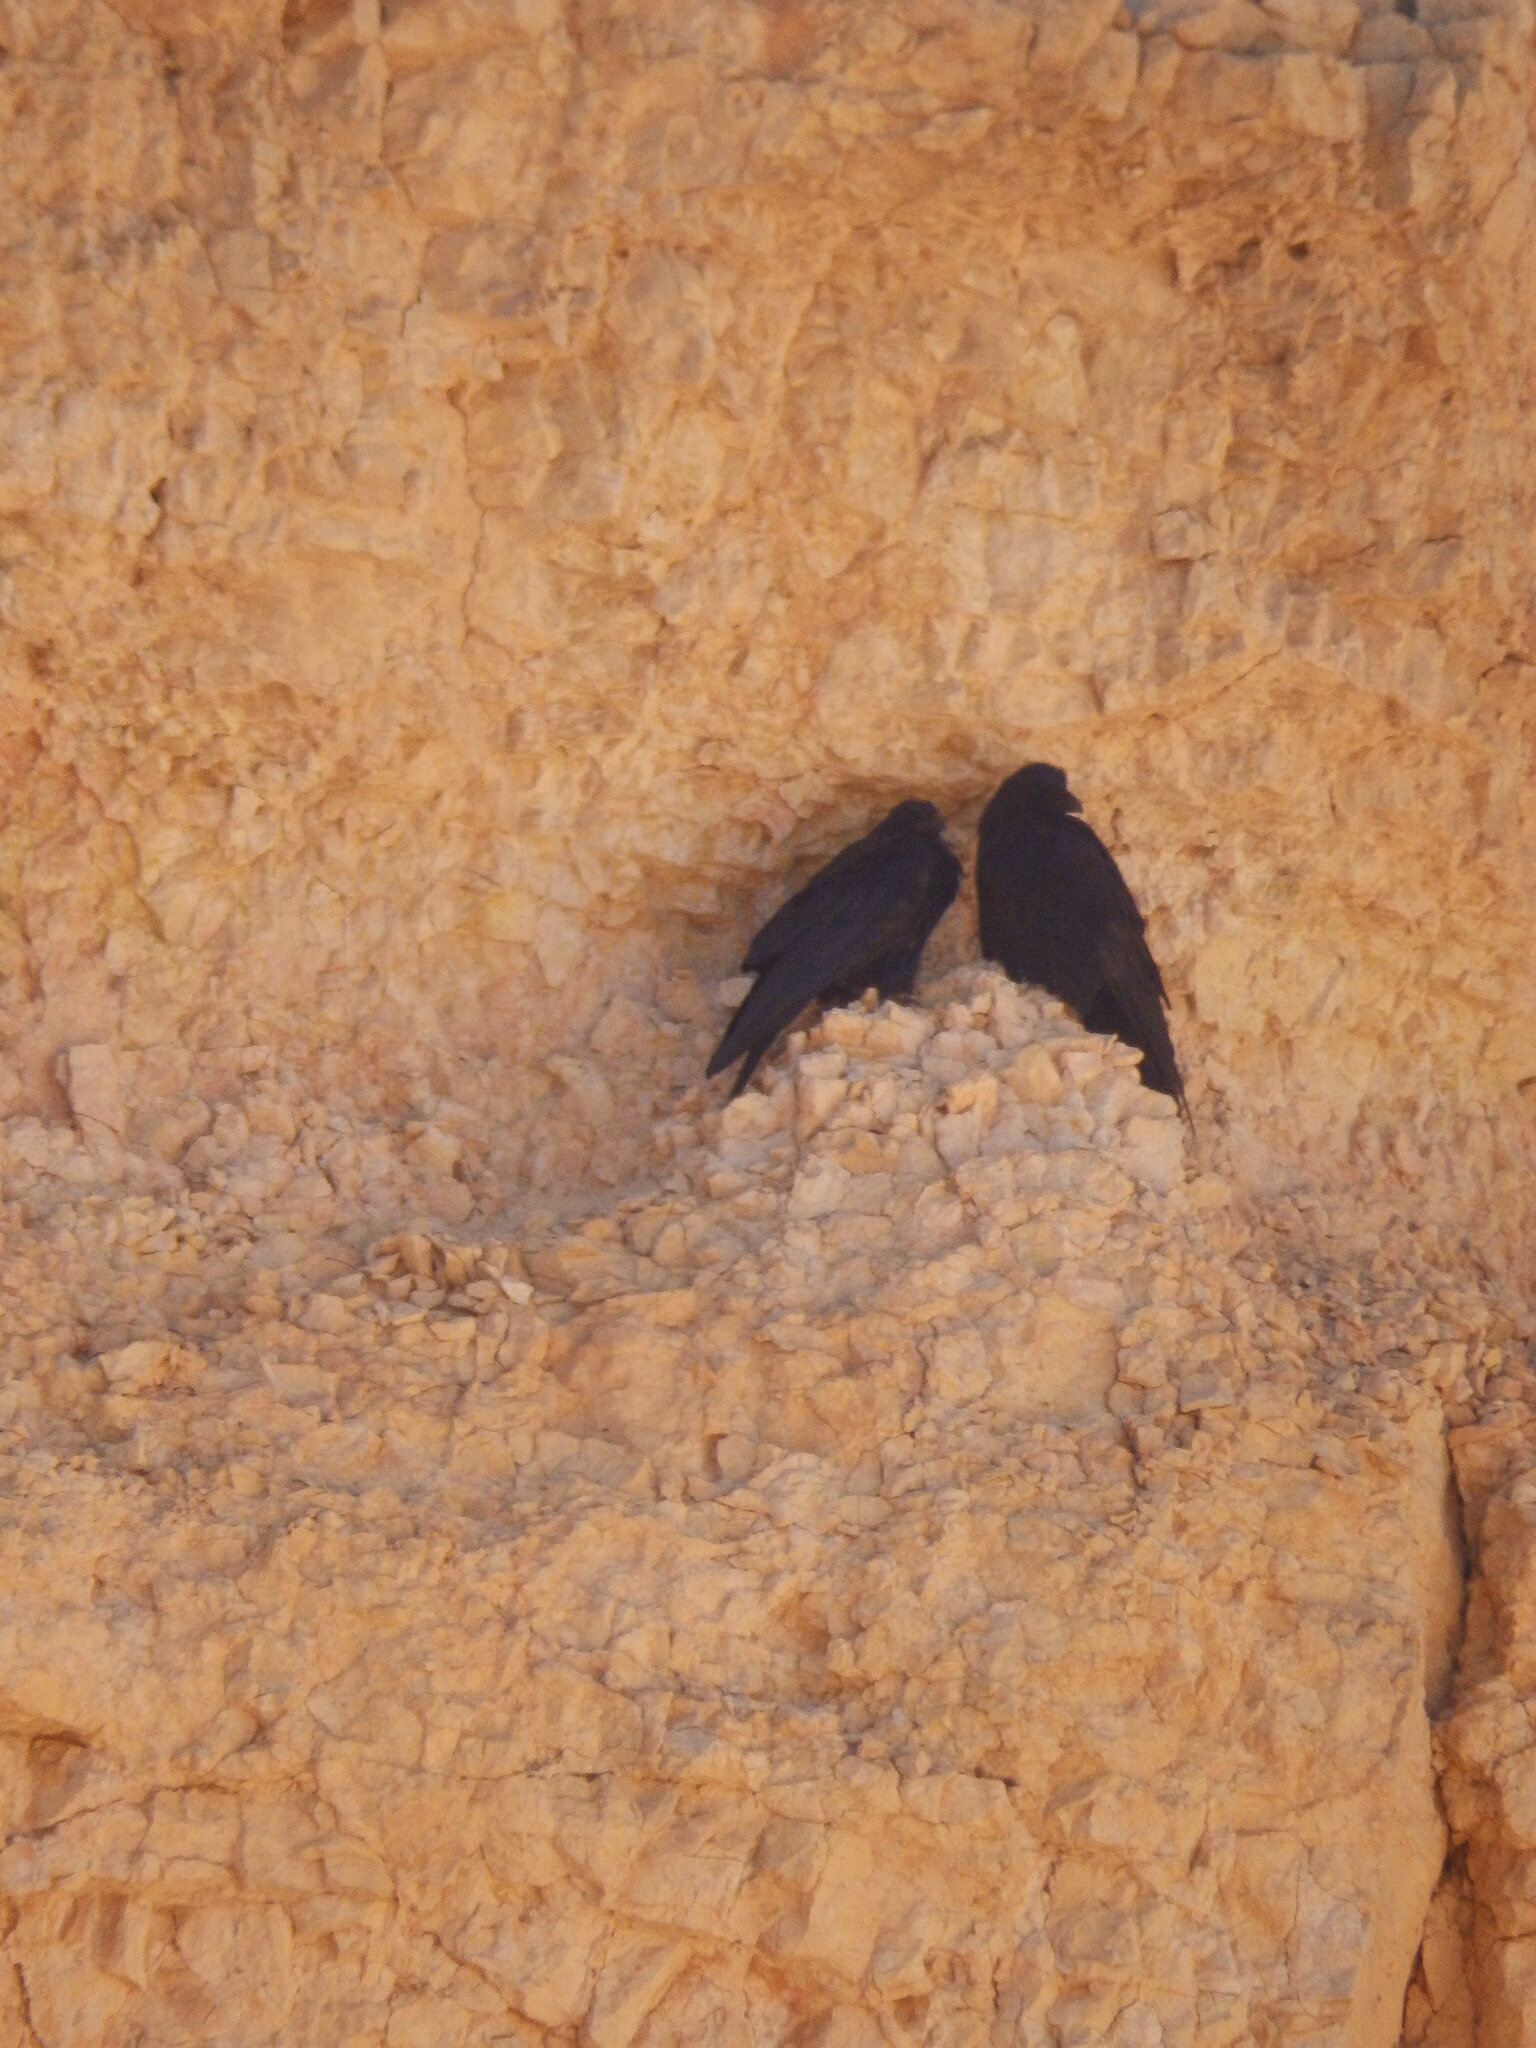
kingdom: Animalia
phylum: Chordata
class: Aves
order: Passeriformes
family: Corvidae
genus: Corvus
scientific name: Corvus corax
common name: Common raven
